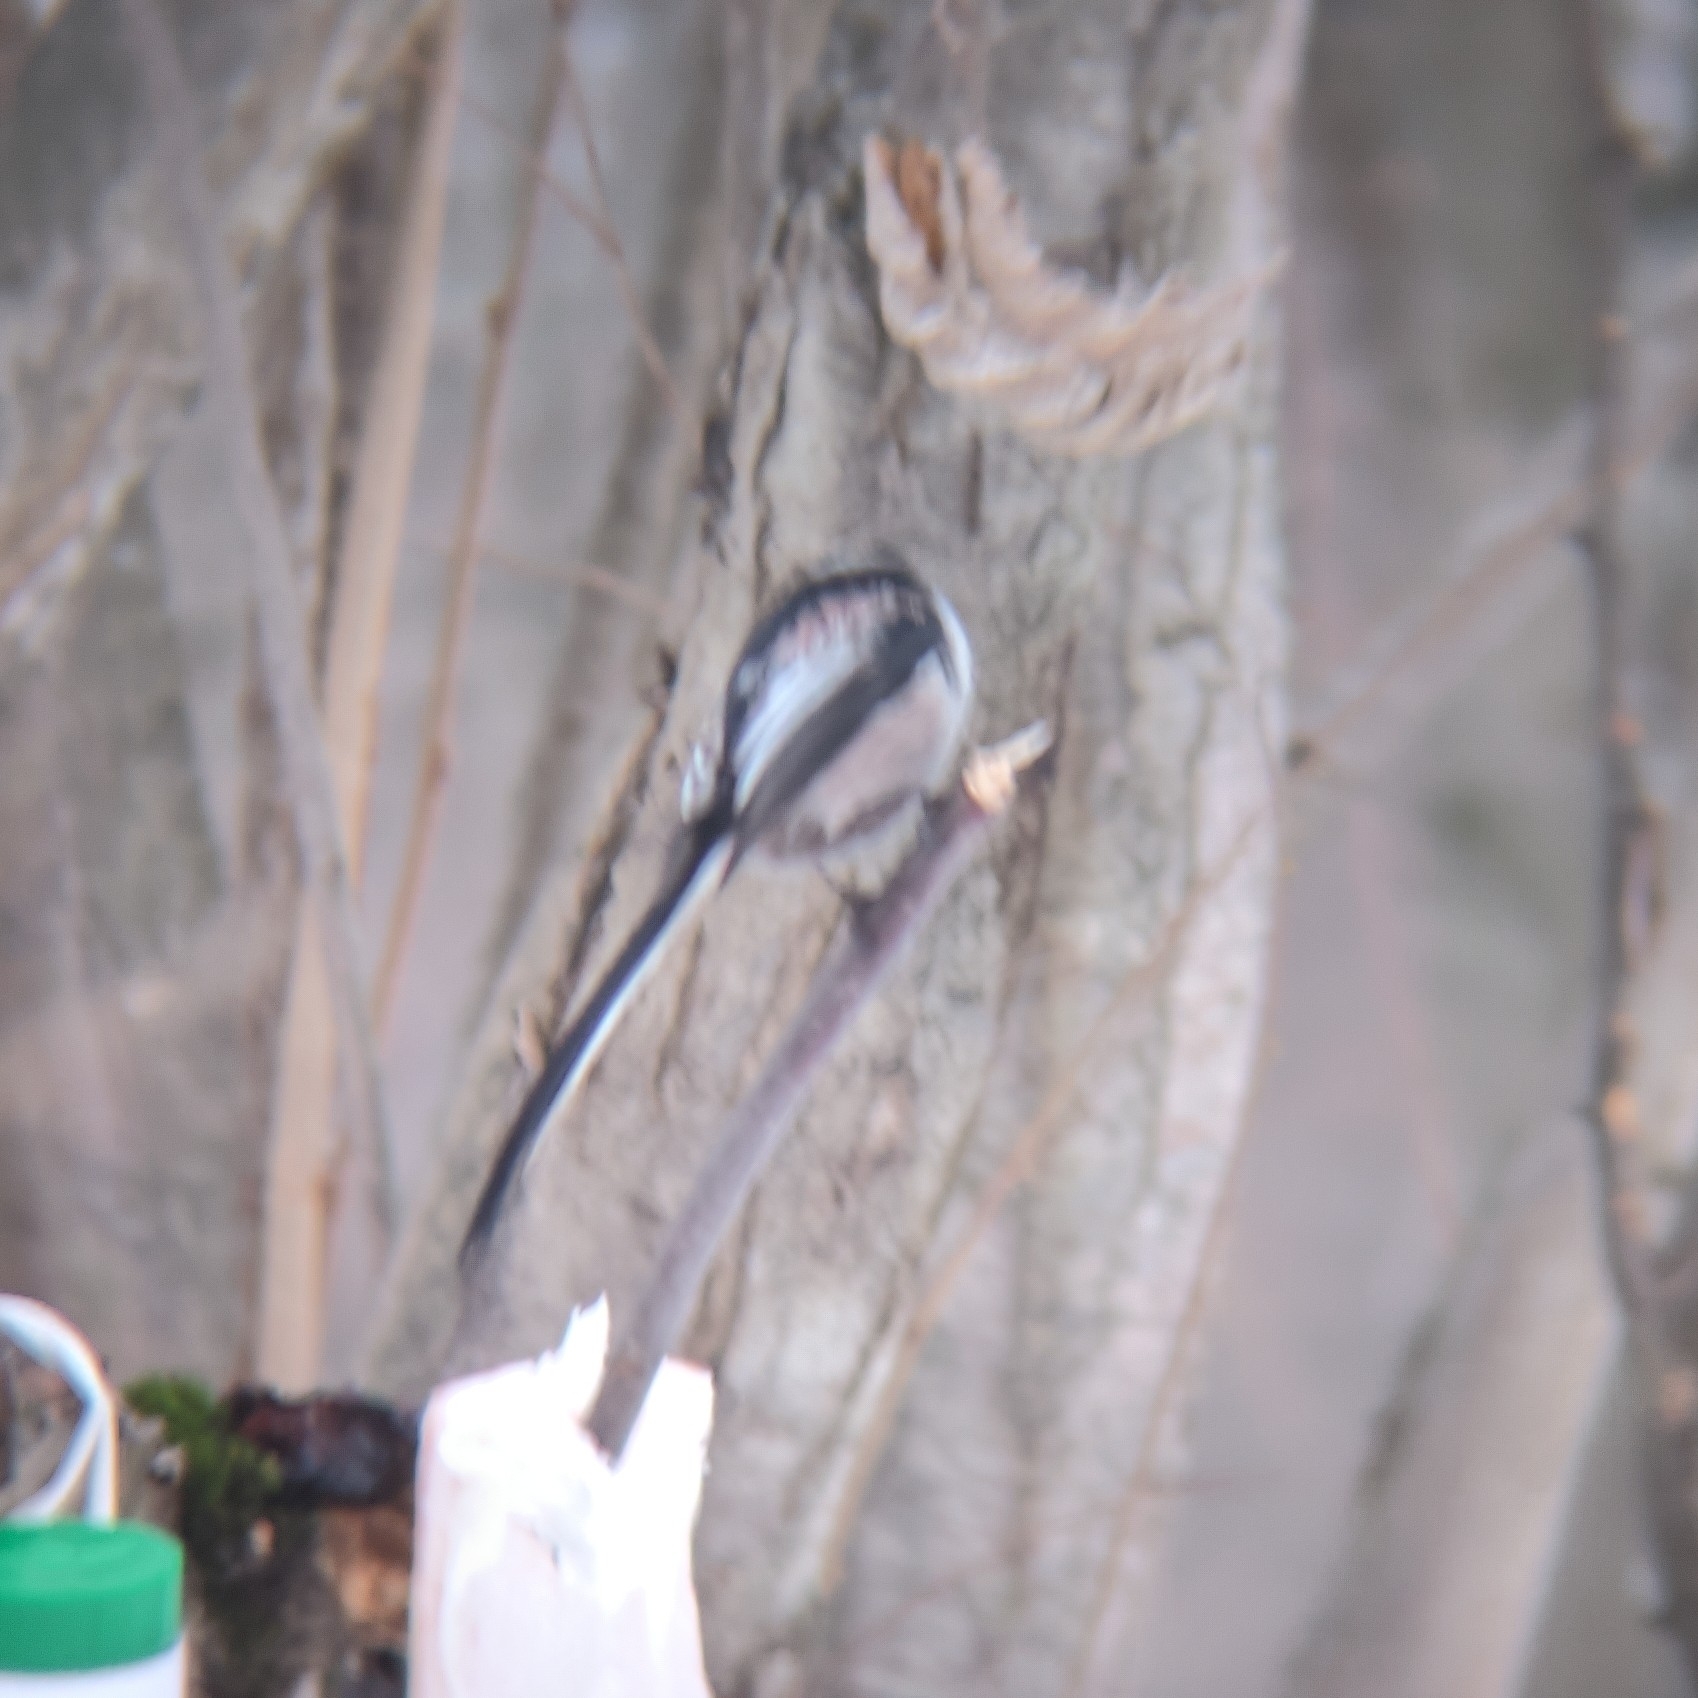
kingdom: Animalia
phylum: Chordata
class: Aves
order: Passeriformes
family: Aegithalidae
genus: Aegithalos
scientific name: Aegithalos caudatus
